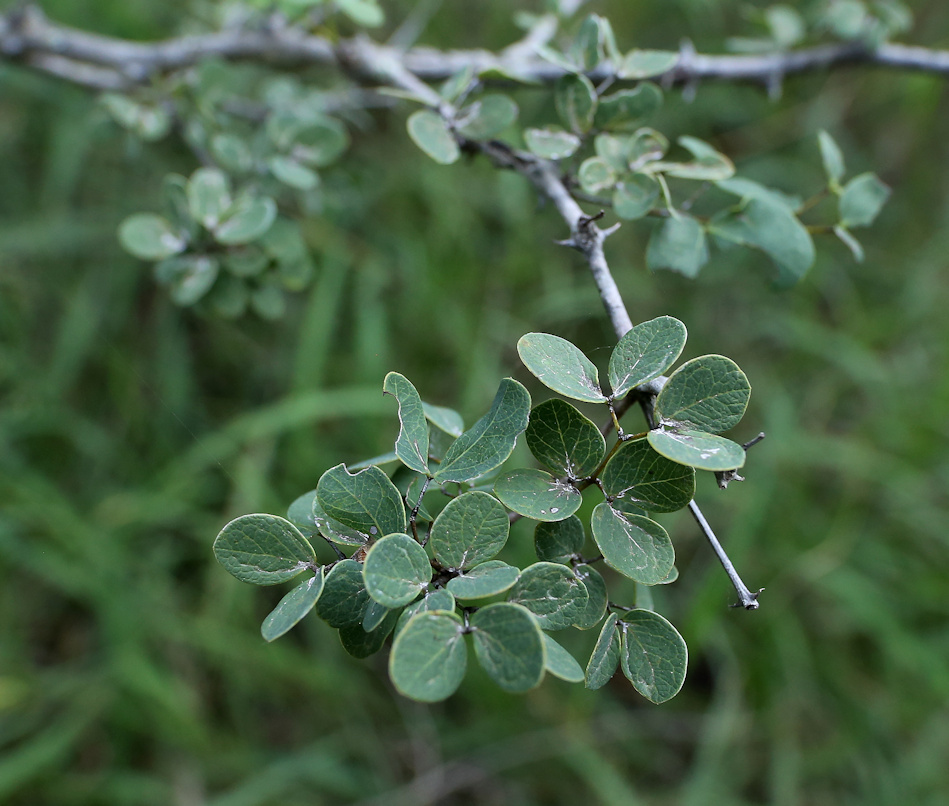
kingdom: Plantae
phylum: Tracheophyta
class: Magnoliopsida
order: Fabales
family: Fabaceae
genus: Senegalia
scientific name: Senegalia nigrescens
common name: Knobthorn
